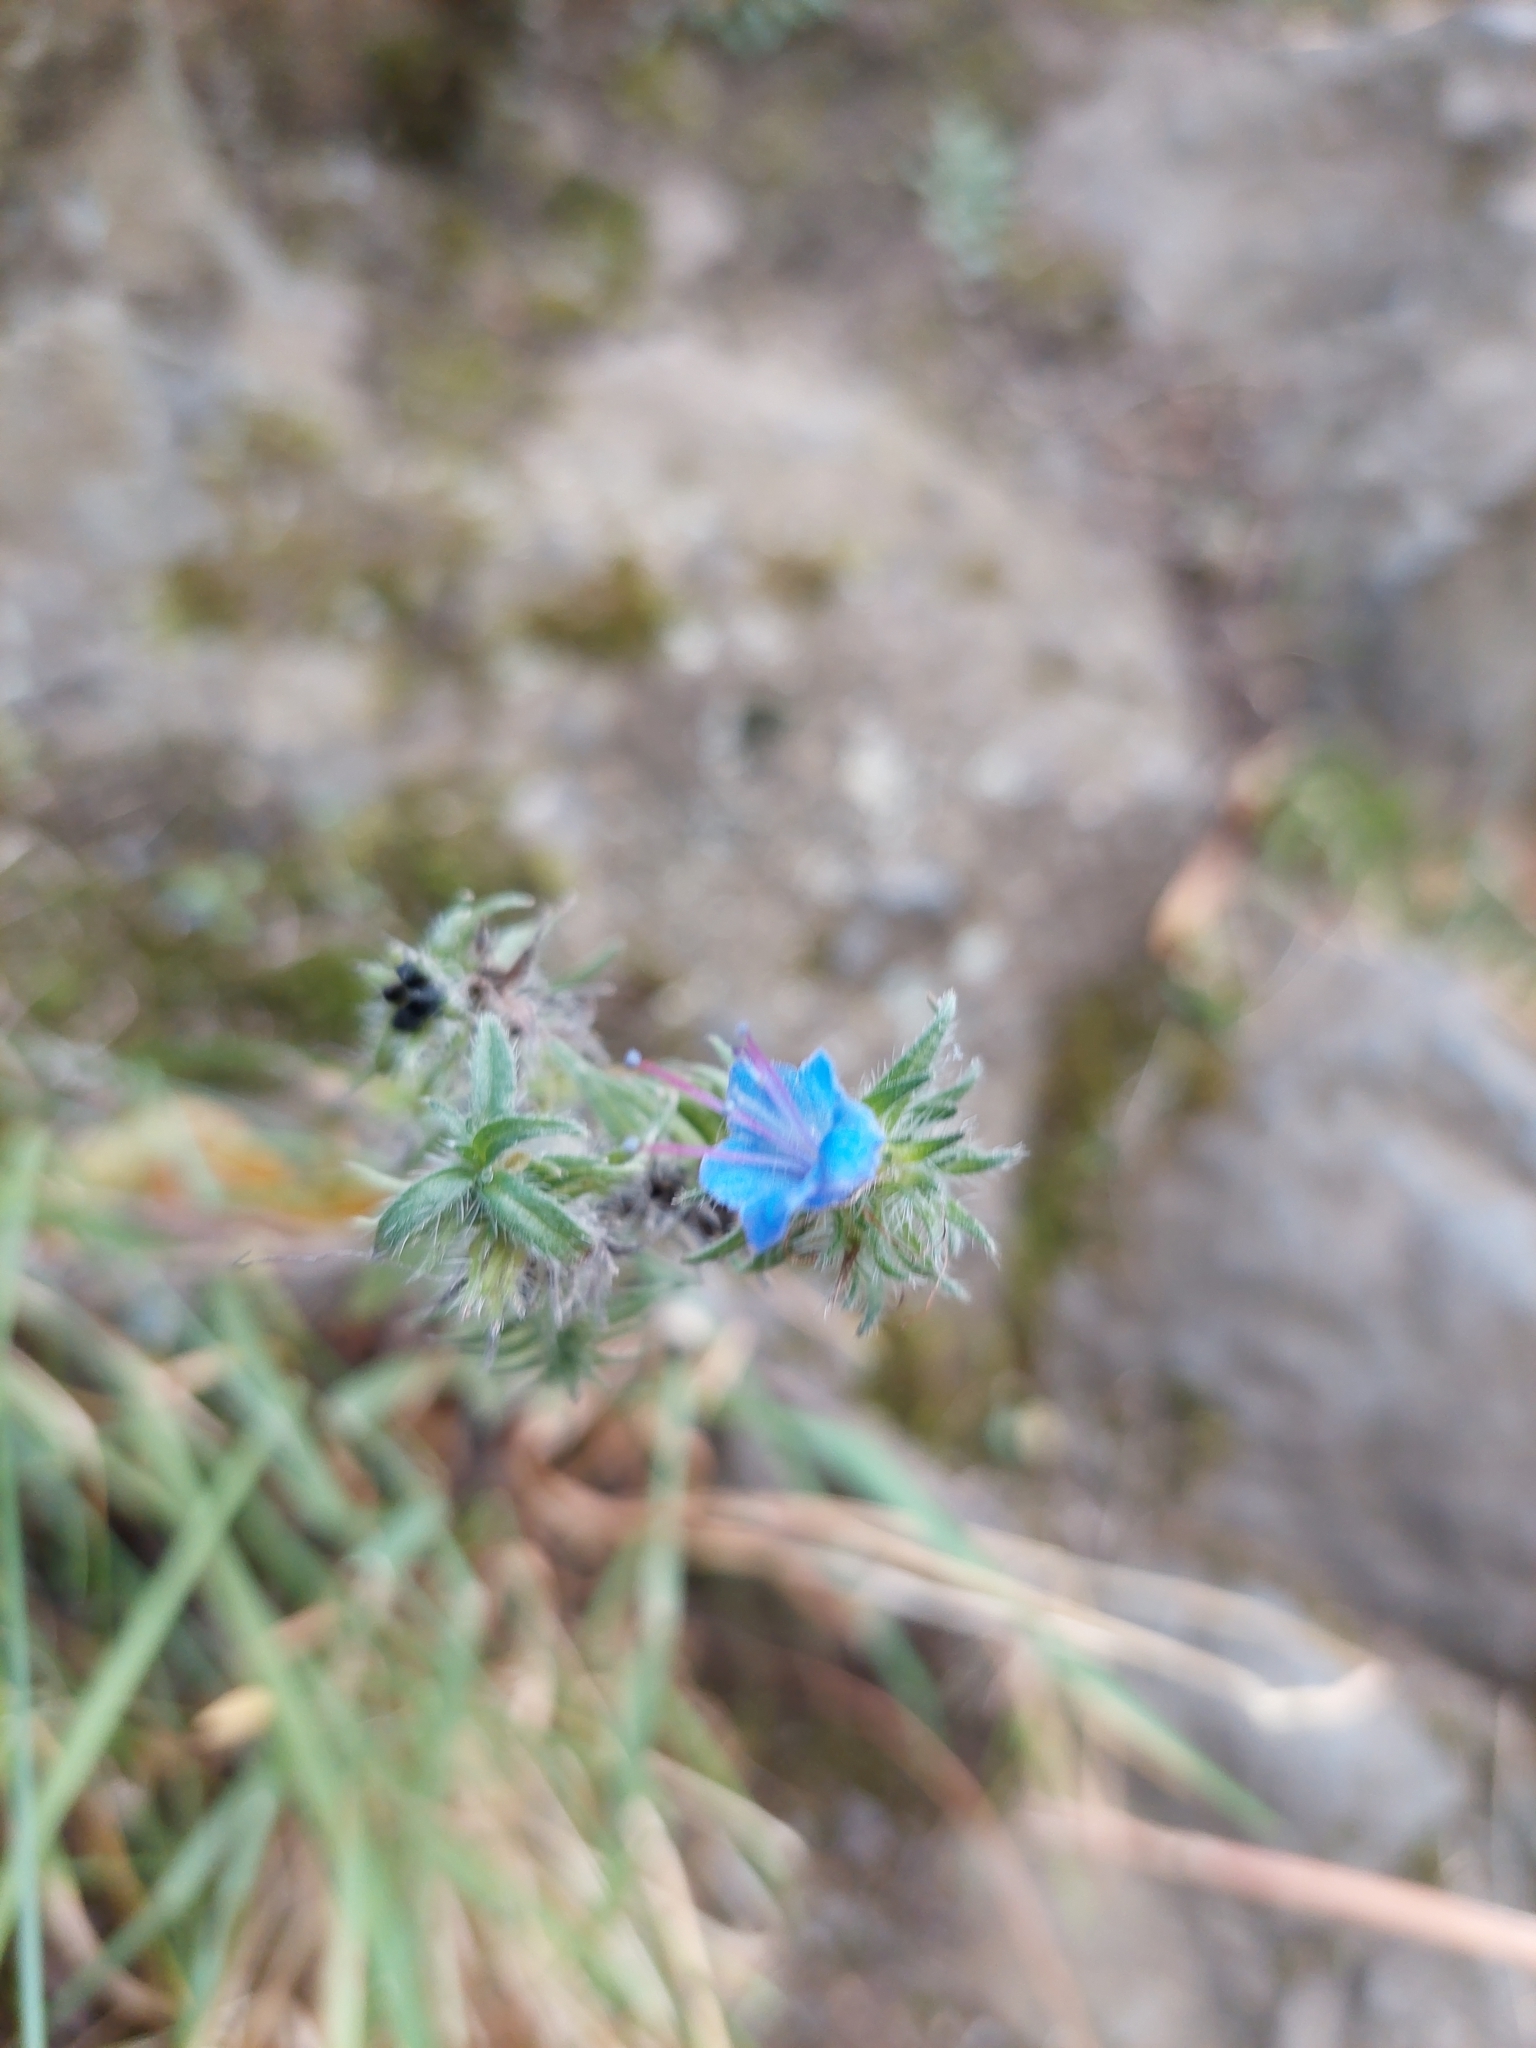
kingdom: Plantae
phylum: Tracheophyta
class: Magnoliopsida
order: Boraginales
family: Boraginaceae
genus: Echium
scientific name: Echium vulgare
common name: Common viper's bugloss
